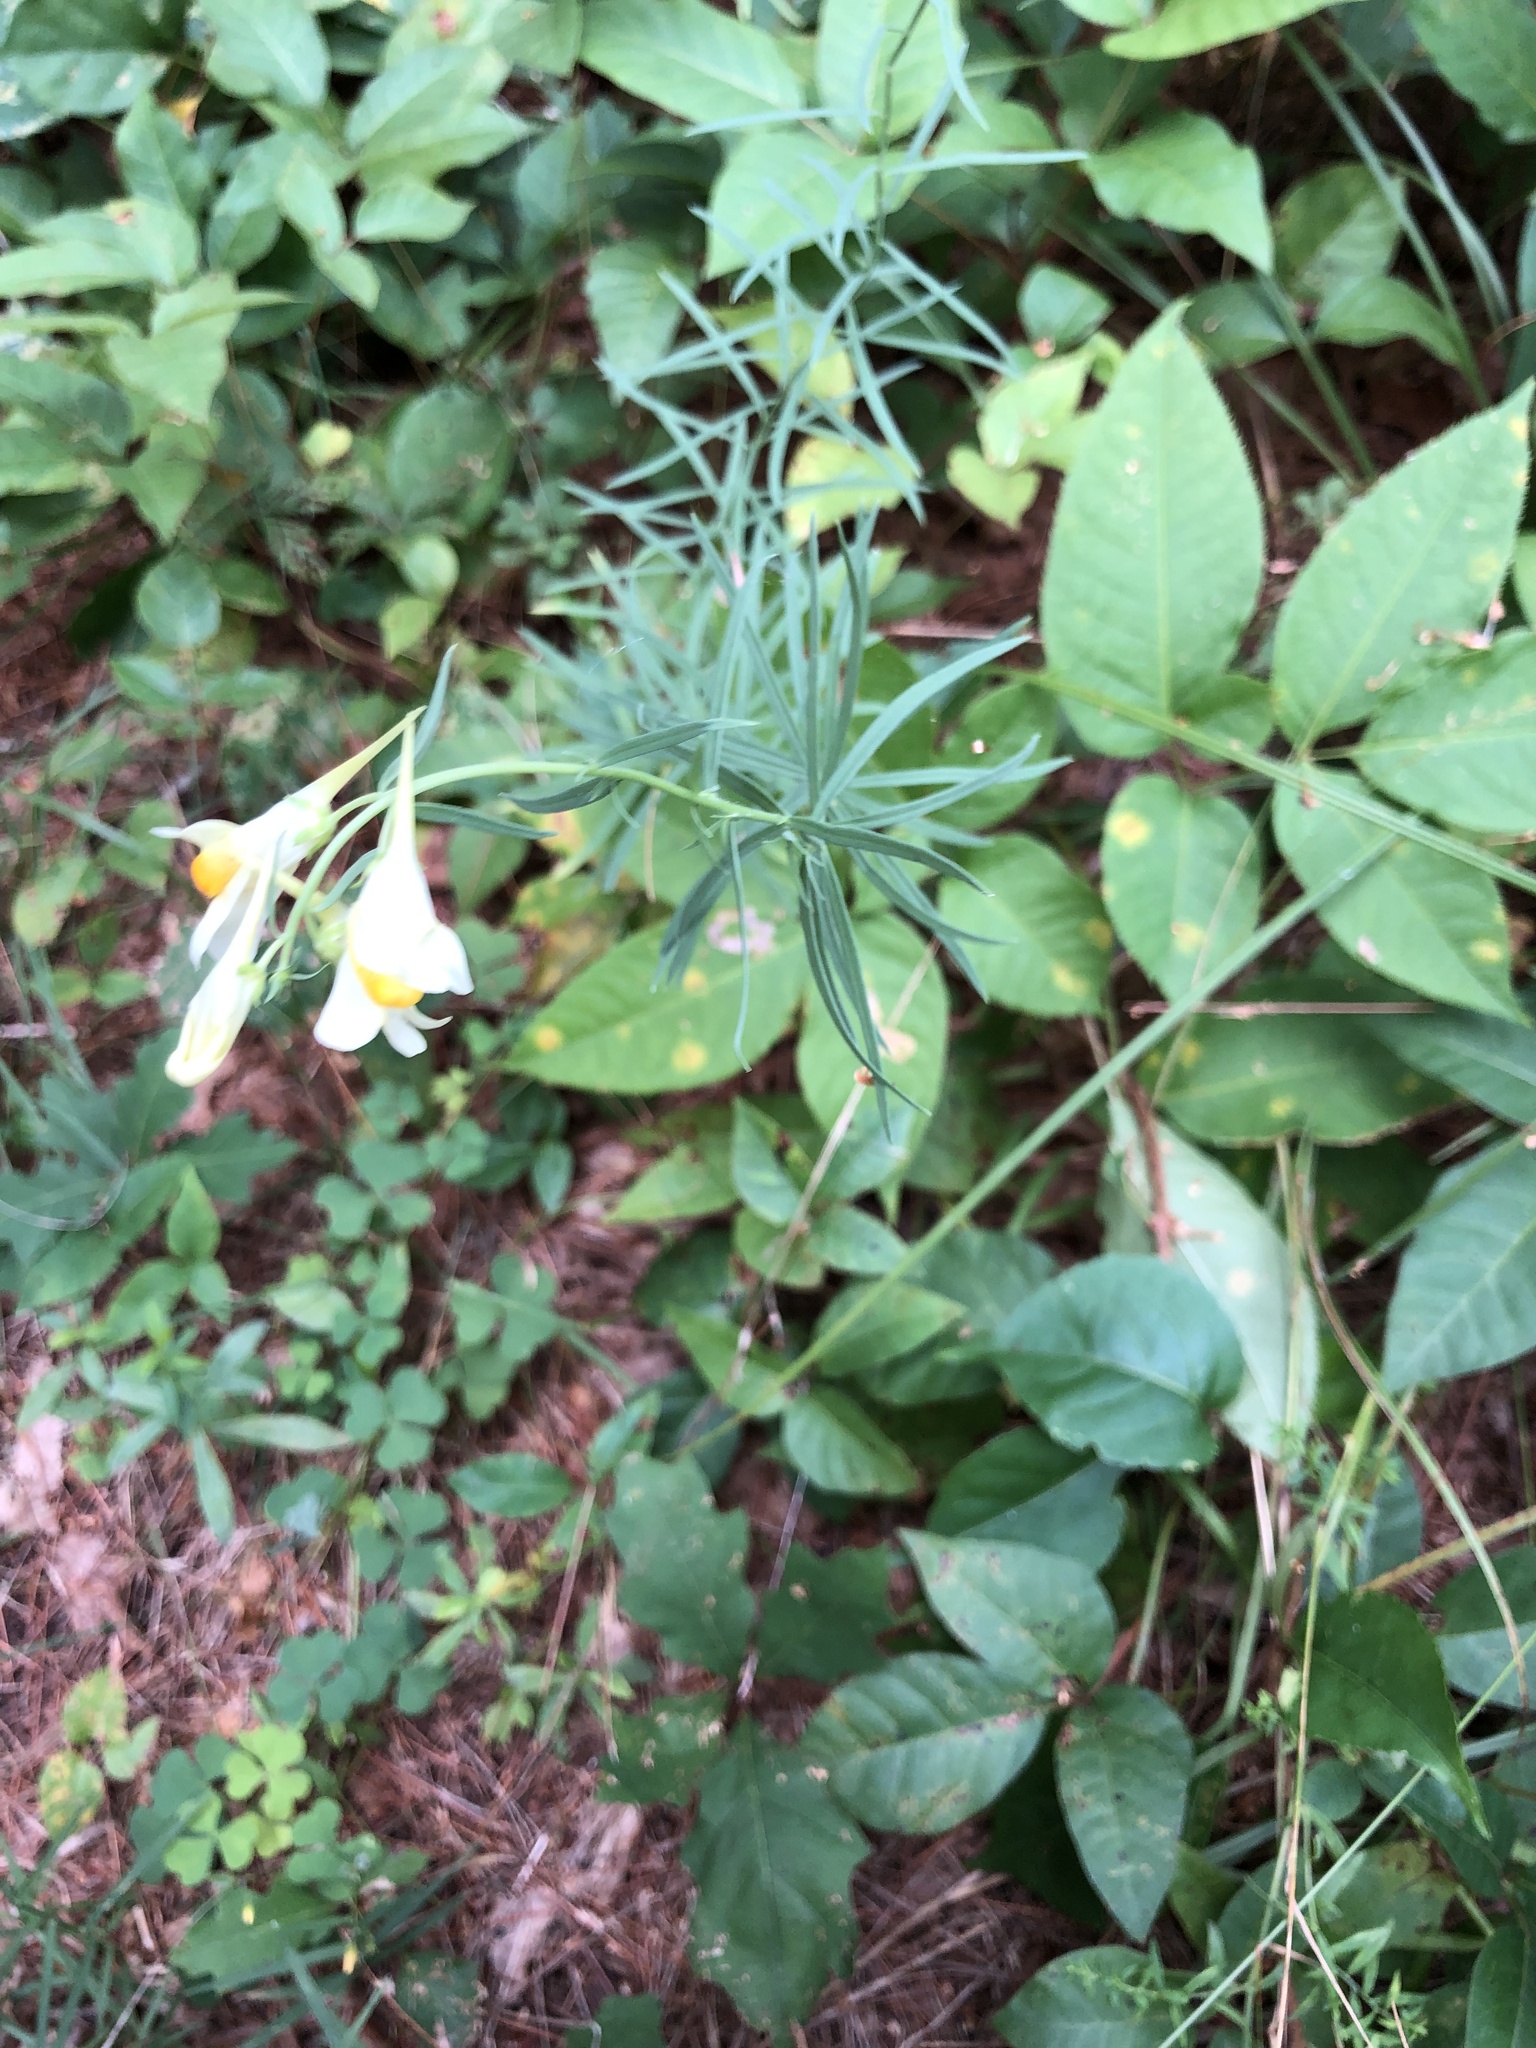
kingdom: Plantae
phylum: Tracheophyta
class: Magnoliopsida
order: Lamiales
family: Plantaginaceae
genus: Linaria
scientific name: Linaria vulgaris
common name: Butter and eggs
